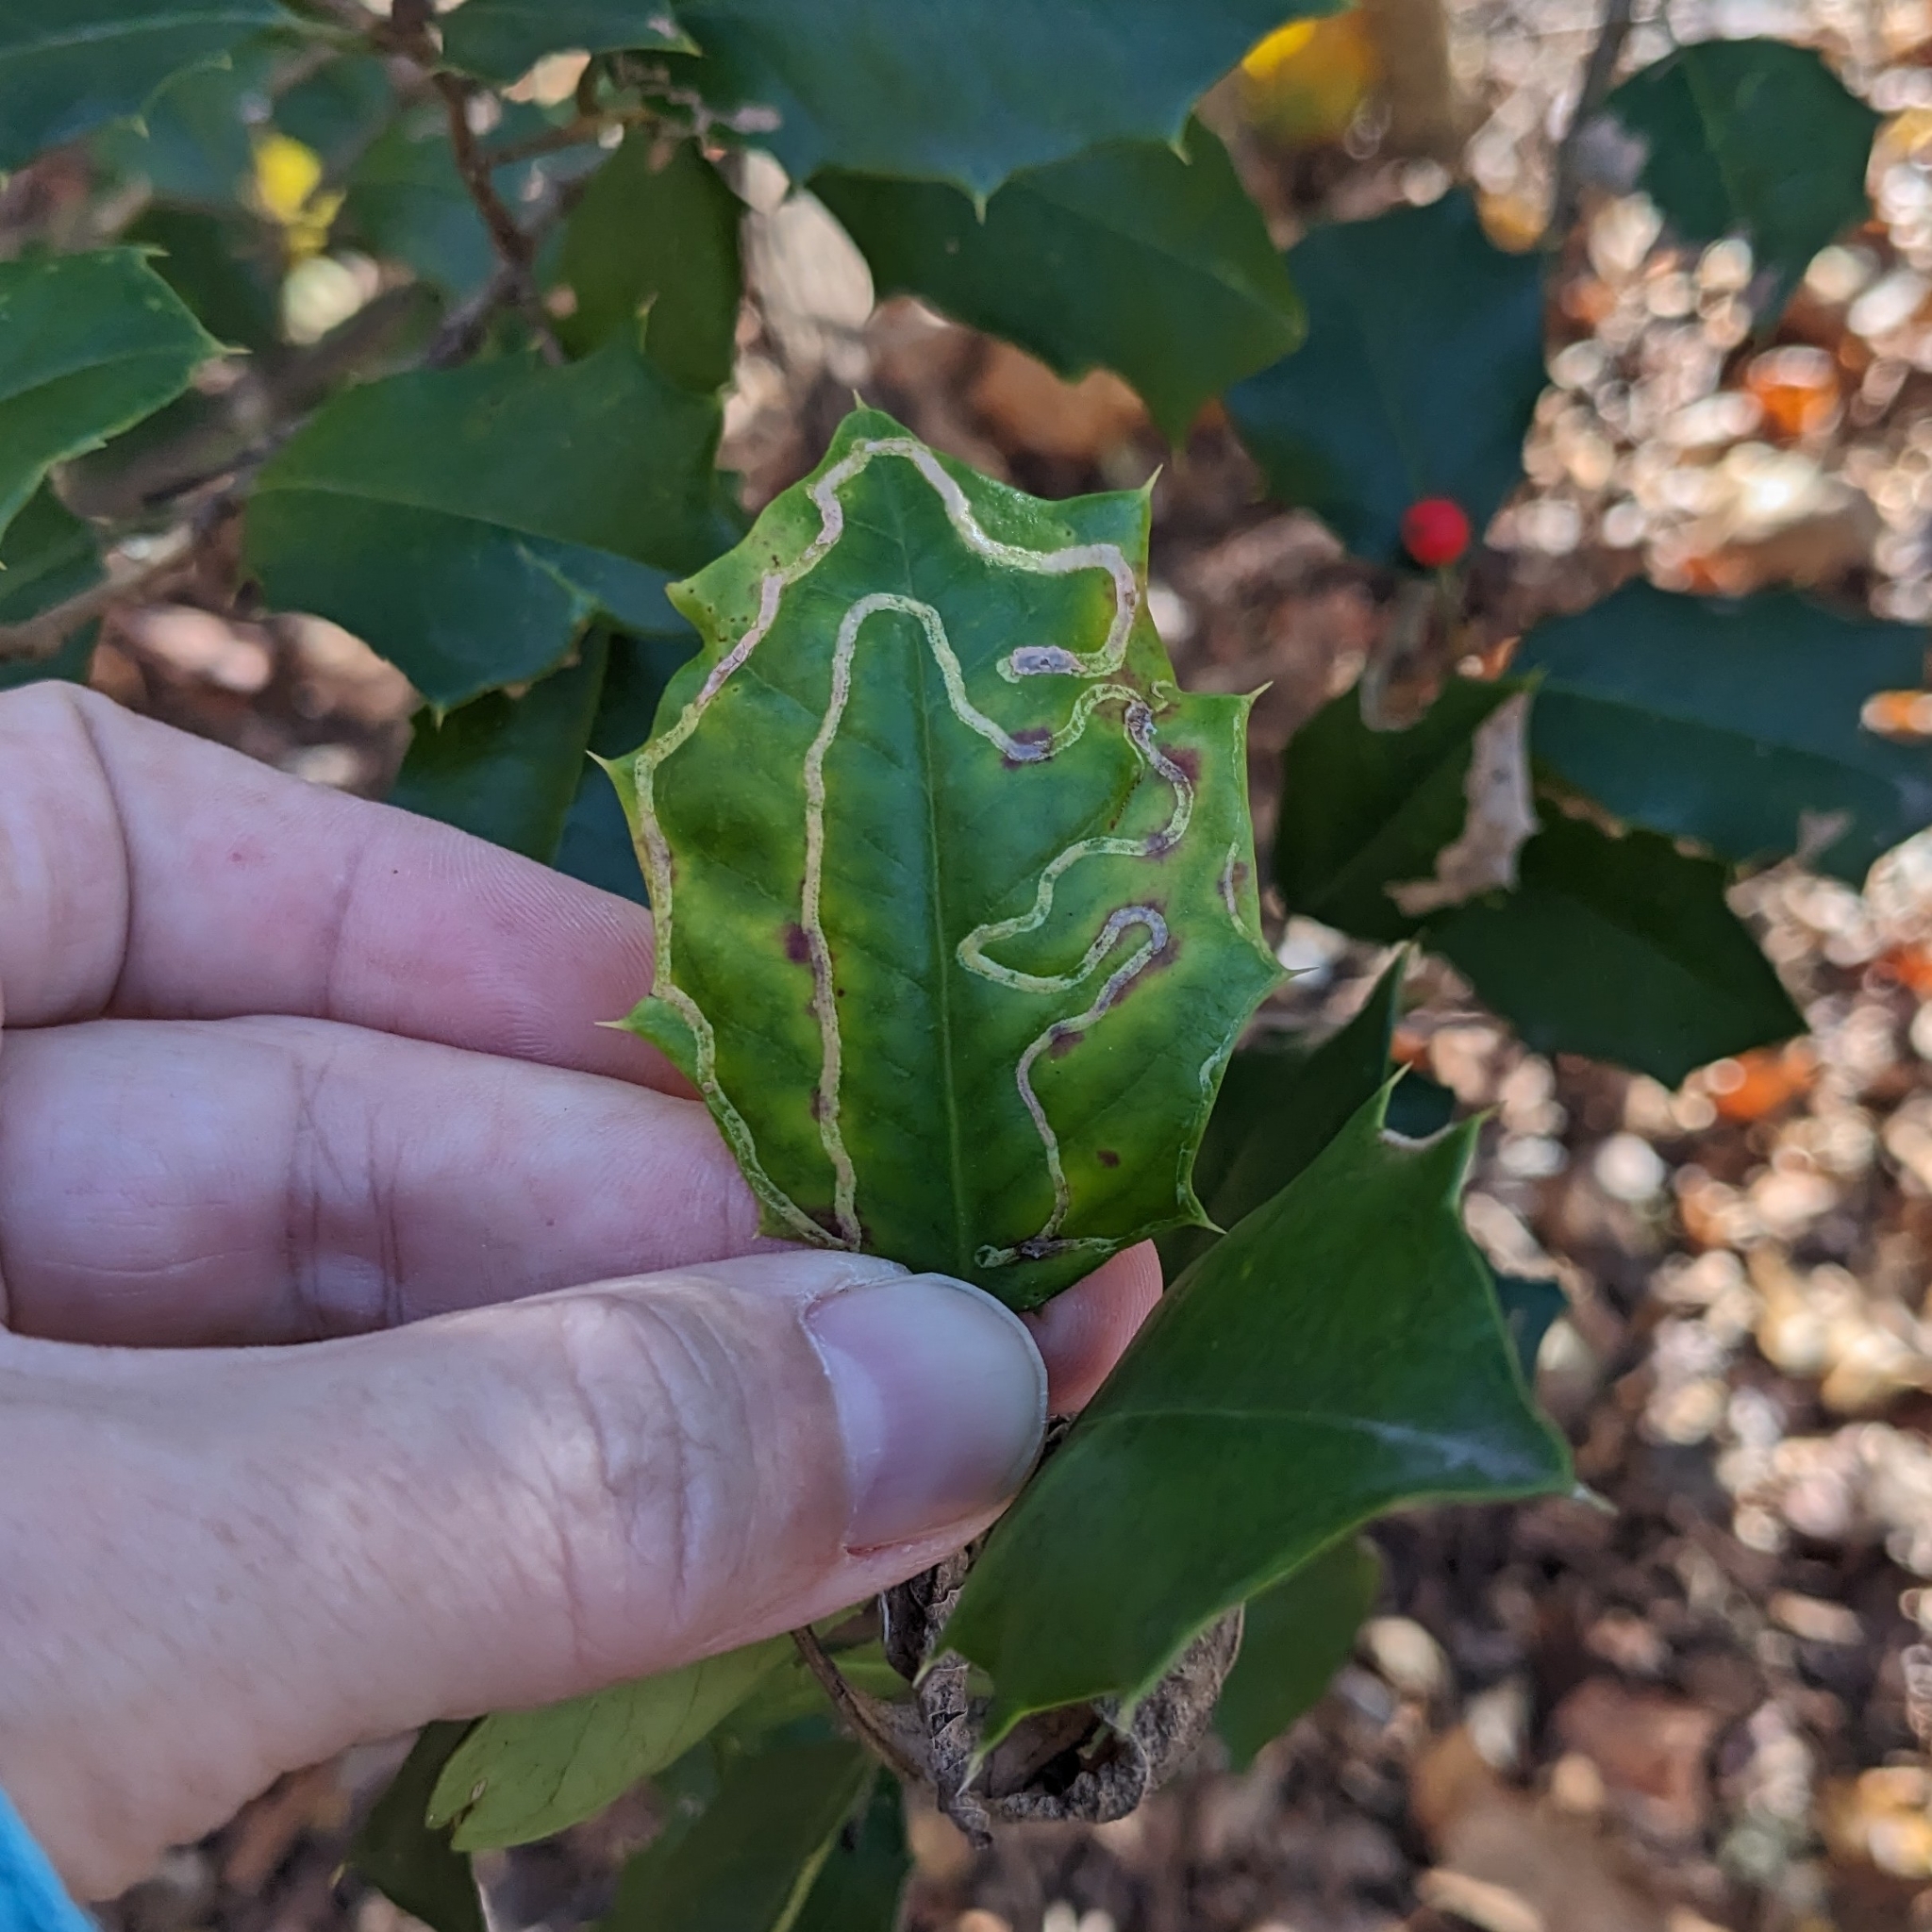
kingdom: Animalia
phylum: Arthropoda
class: Insecta
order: Diptera
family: Agromyzidae
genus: Phytomyza
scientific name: Phytomyza opacae
